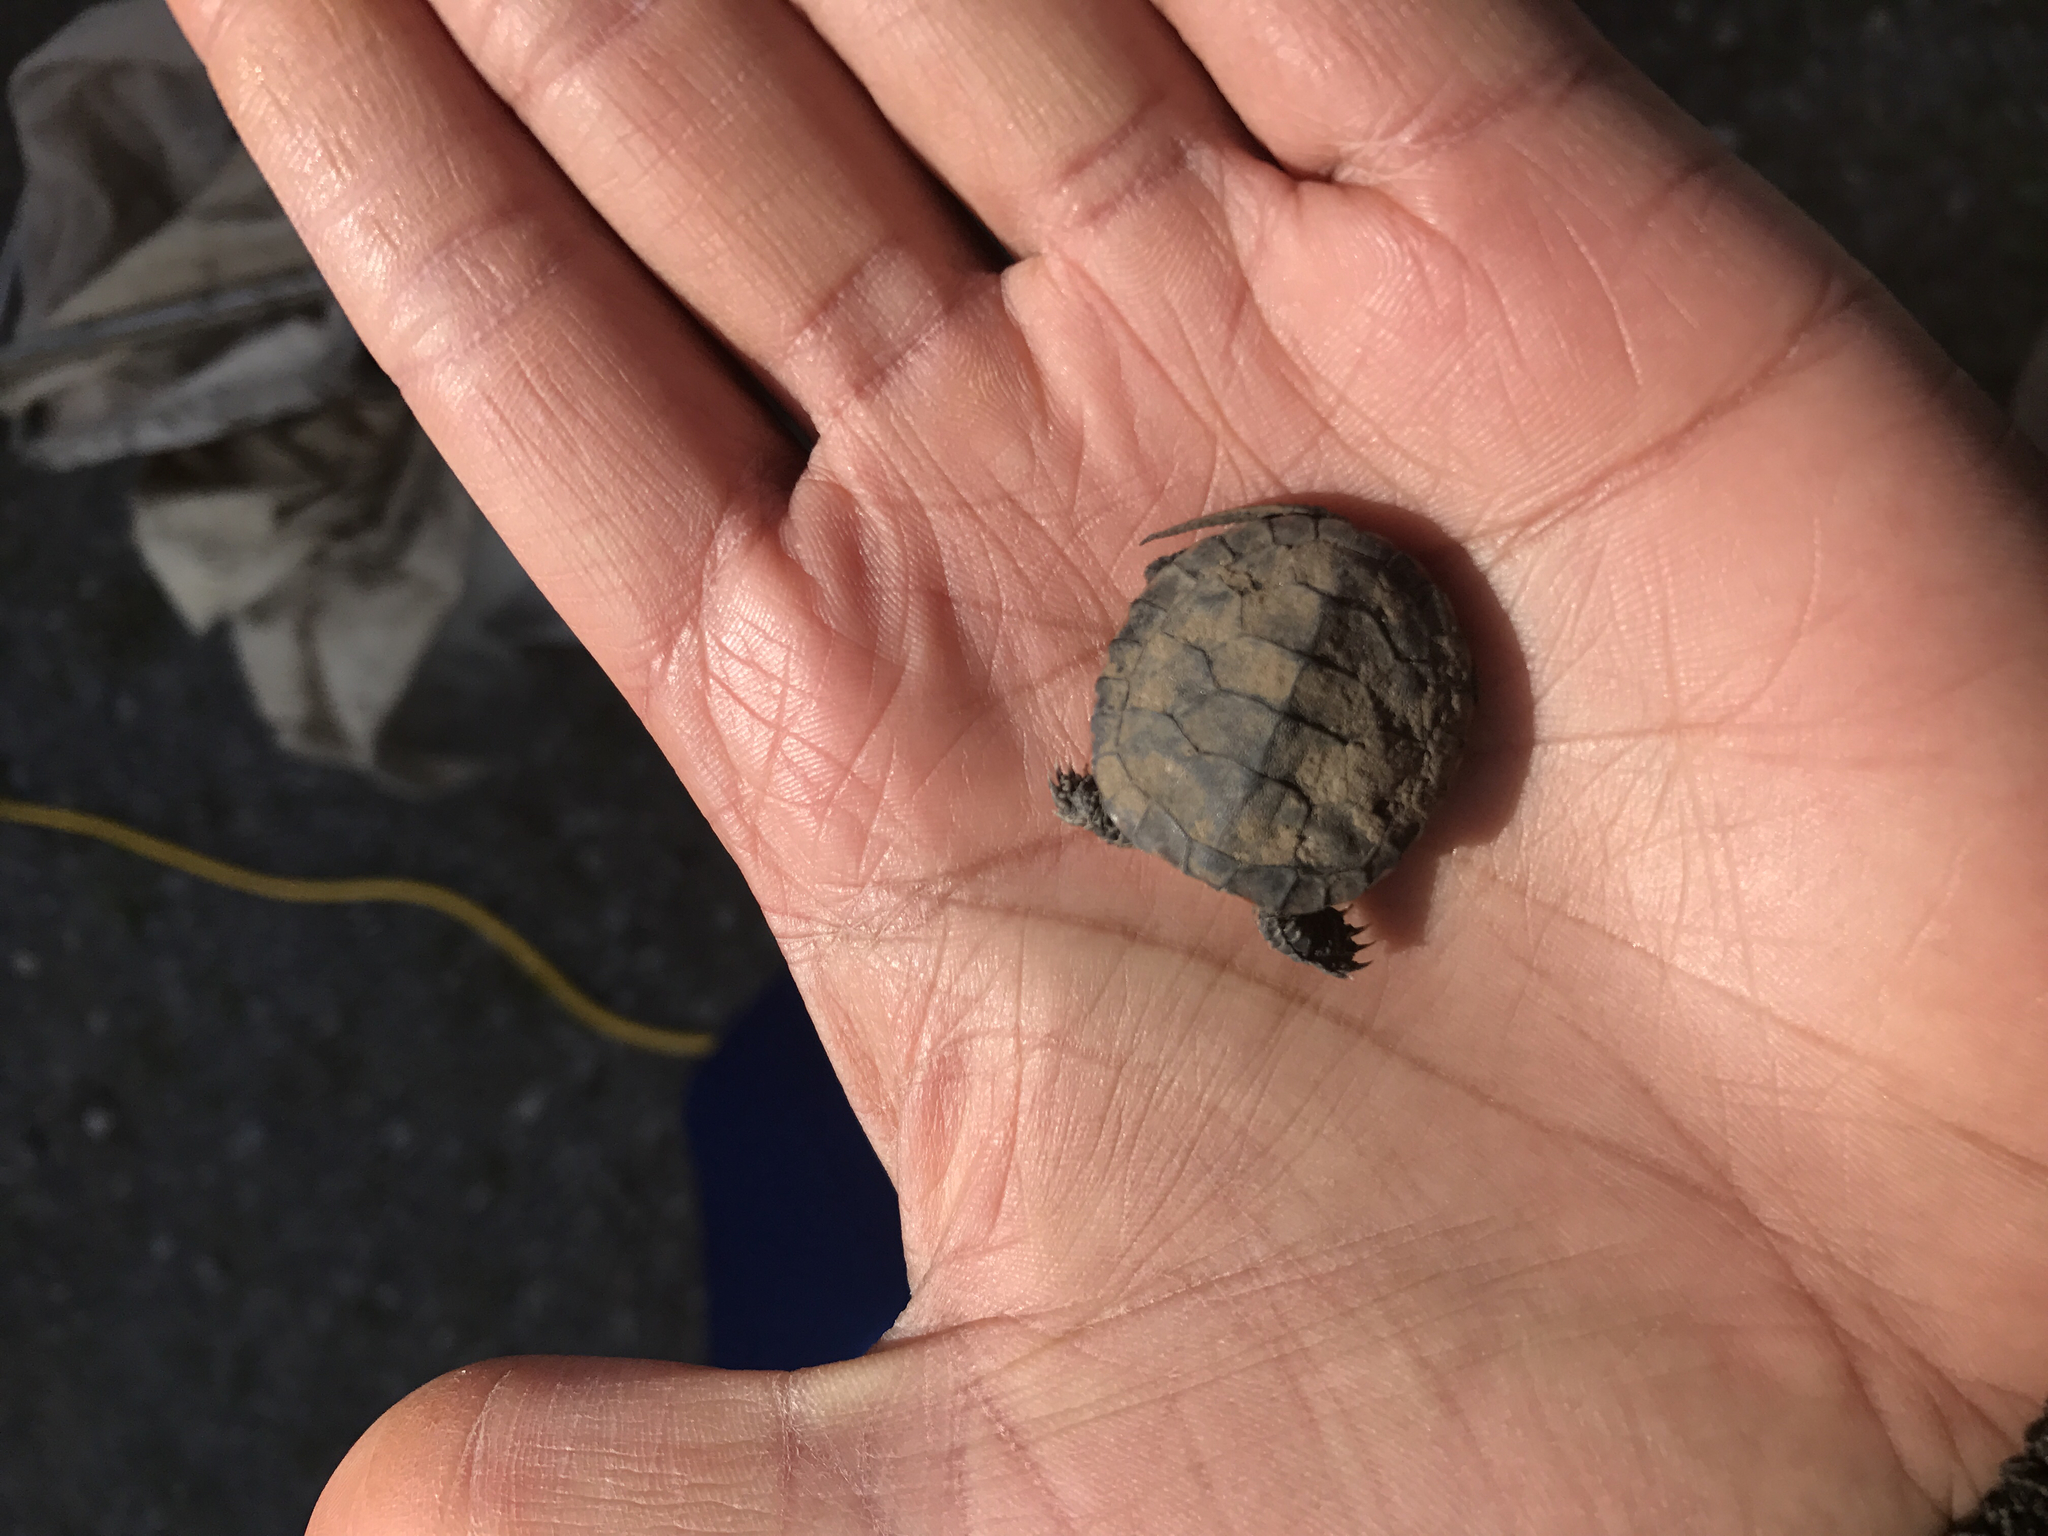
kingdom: Animalia
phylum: Chordata
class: Testudines
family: Emydidae
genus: Chrysemys
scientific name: Chrysemys picta
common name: Painted turtle
